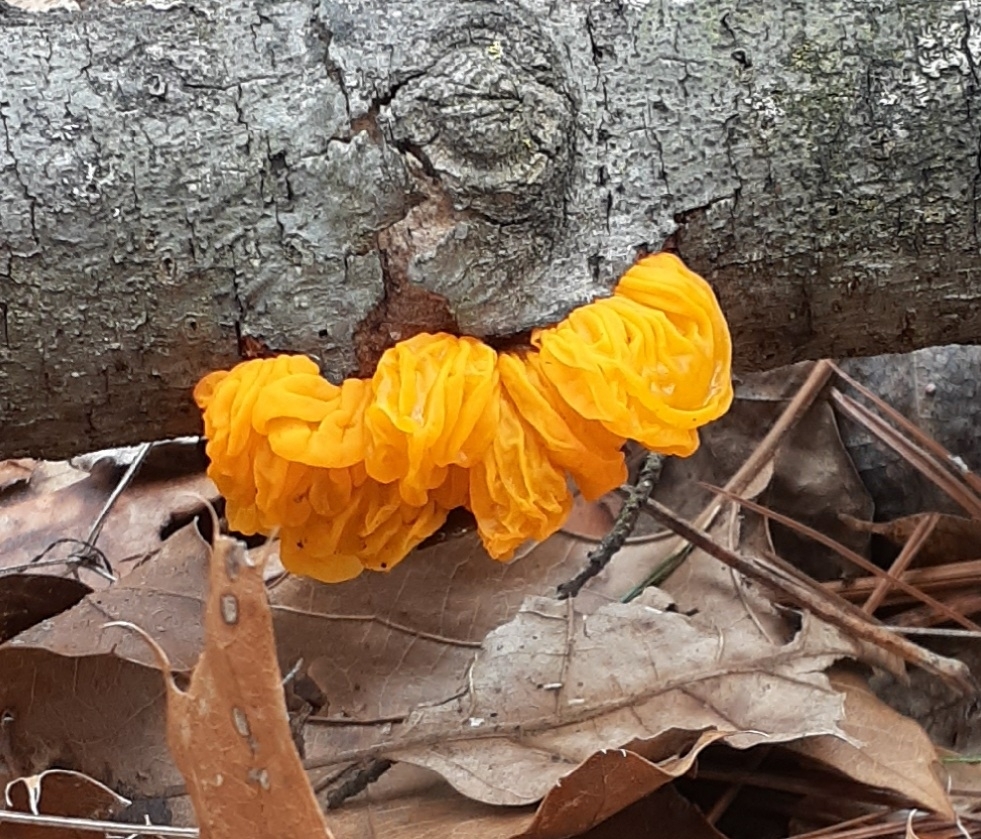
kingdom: Fungi
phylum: Basidiomycota
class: Tremellomycetes
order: Tremellales
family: Tremellaceae
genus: Tremella
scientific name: Tremella mesenterica
